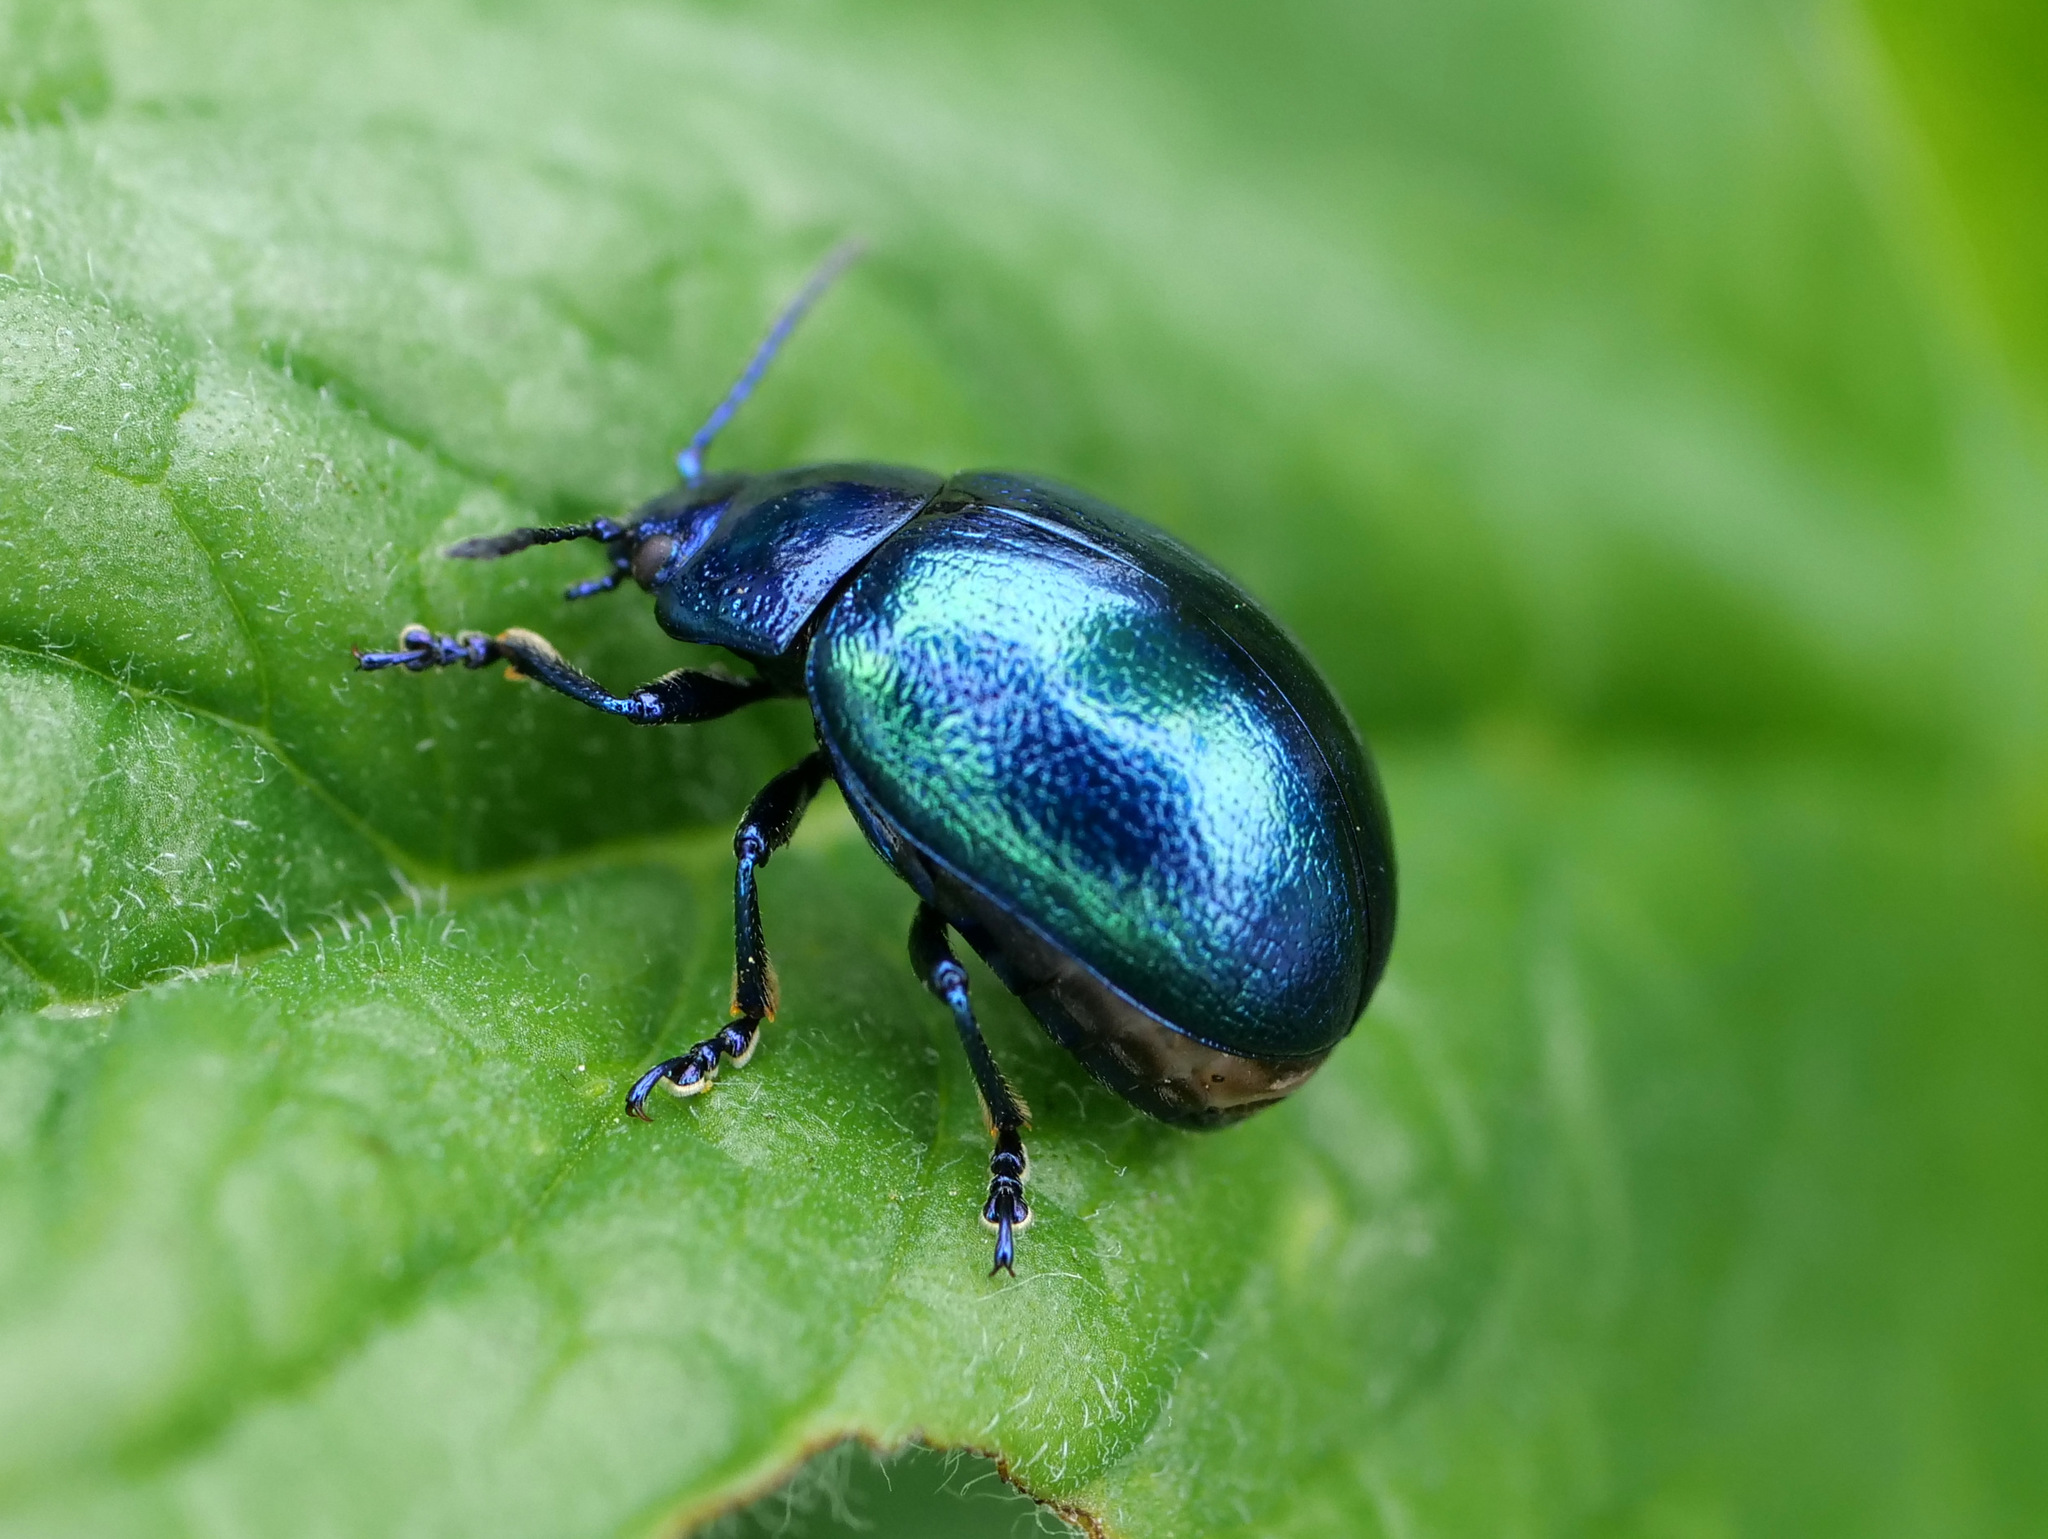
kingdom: Animalia
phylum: Arthropoda
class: Insecta
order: Coleoptera
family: Chrysomelidae
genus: Chrysolina
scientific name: Chrysolina coerulans
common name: Blue mint beetle
